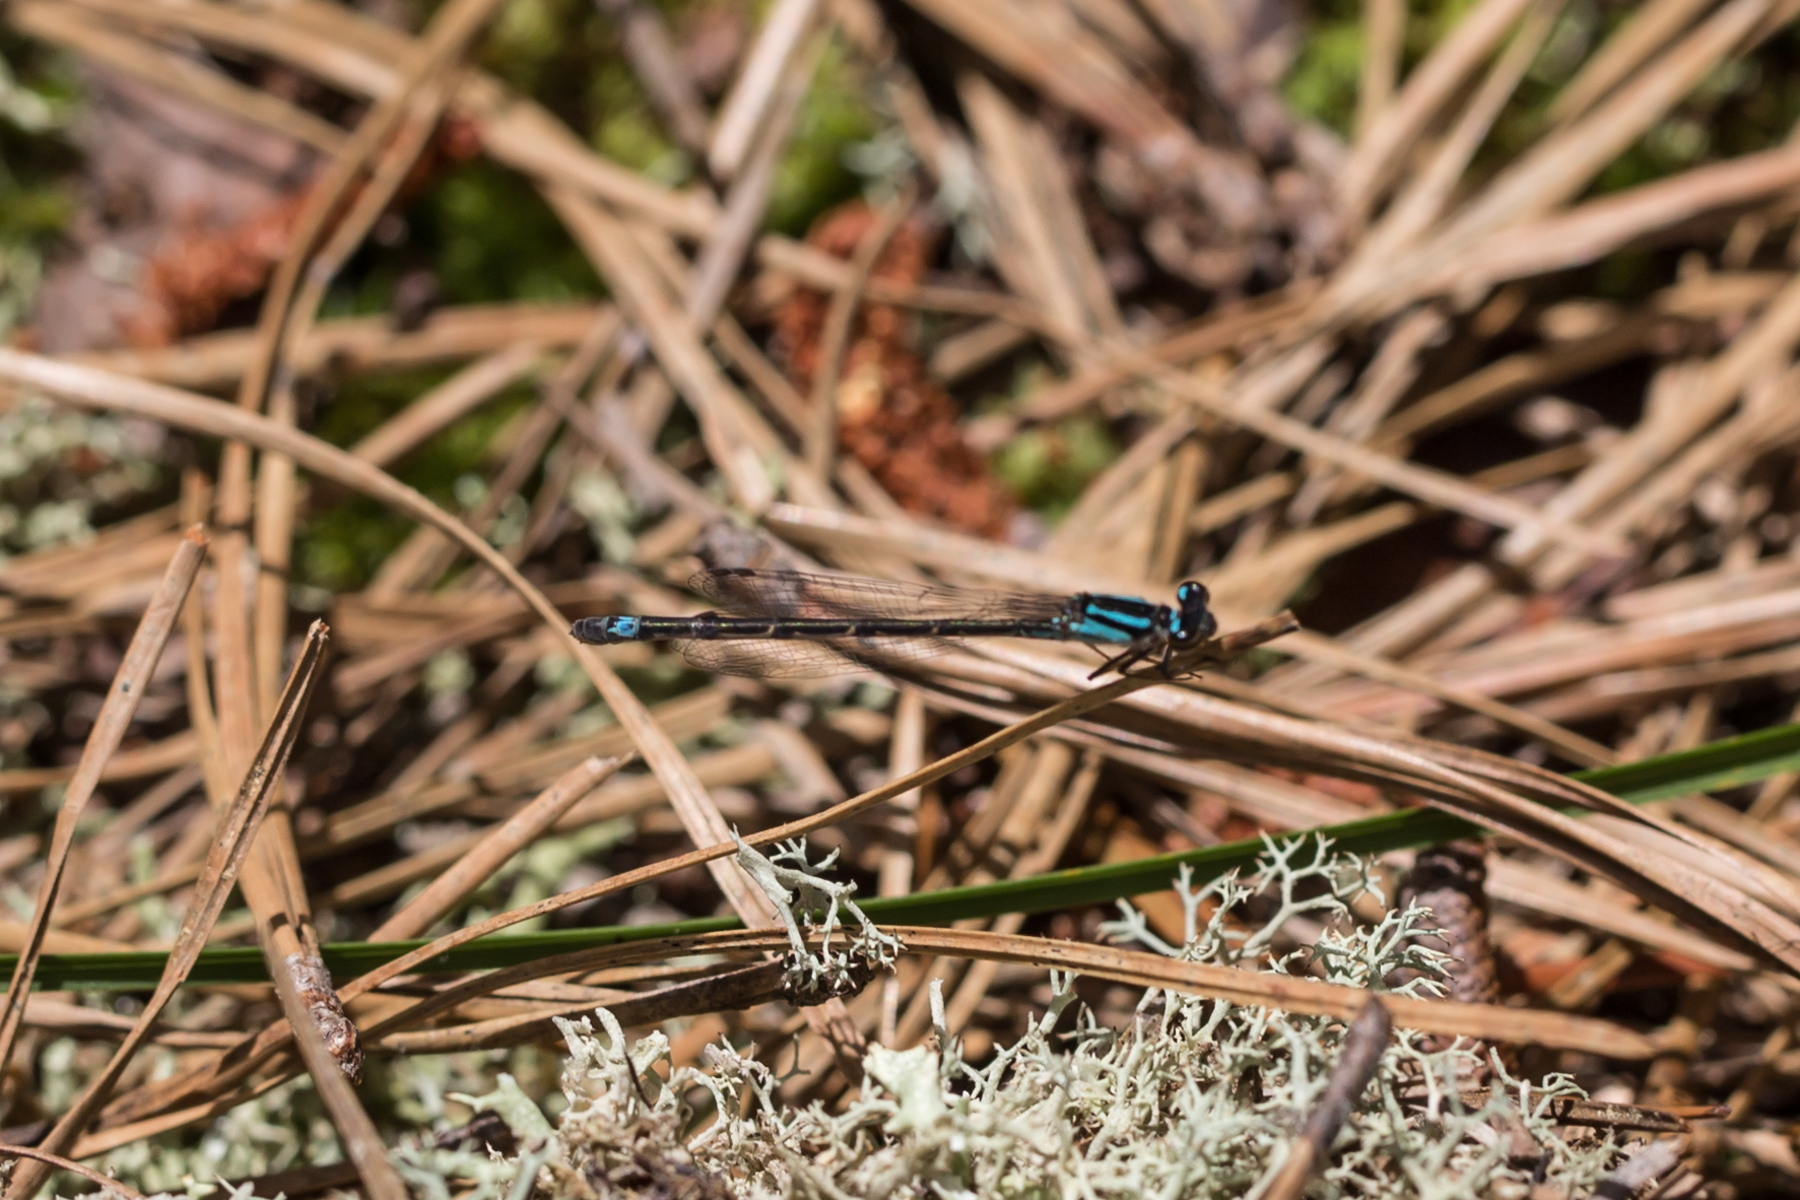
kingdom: Animalia
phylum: Arthropoda
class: Insecta
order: Odonata
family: Coenagrionidae
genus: Enallagma
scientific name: Enallagma geminatum
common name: Skimming bluet
